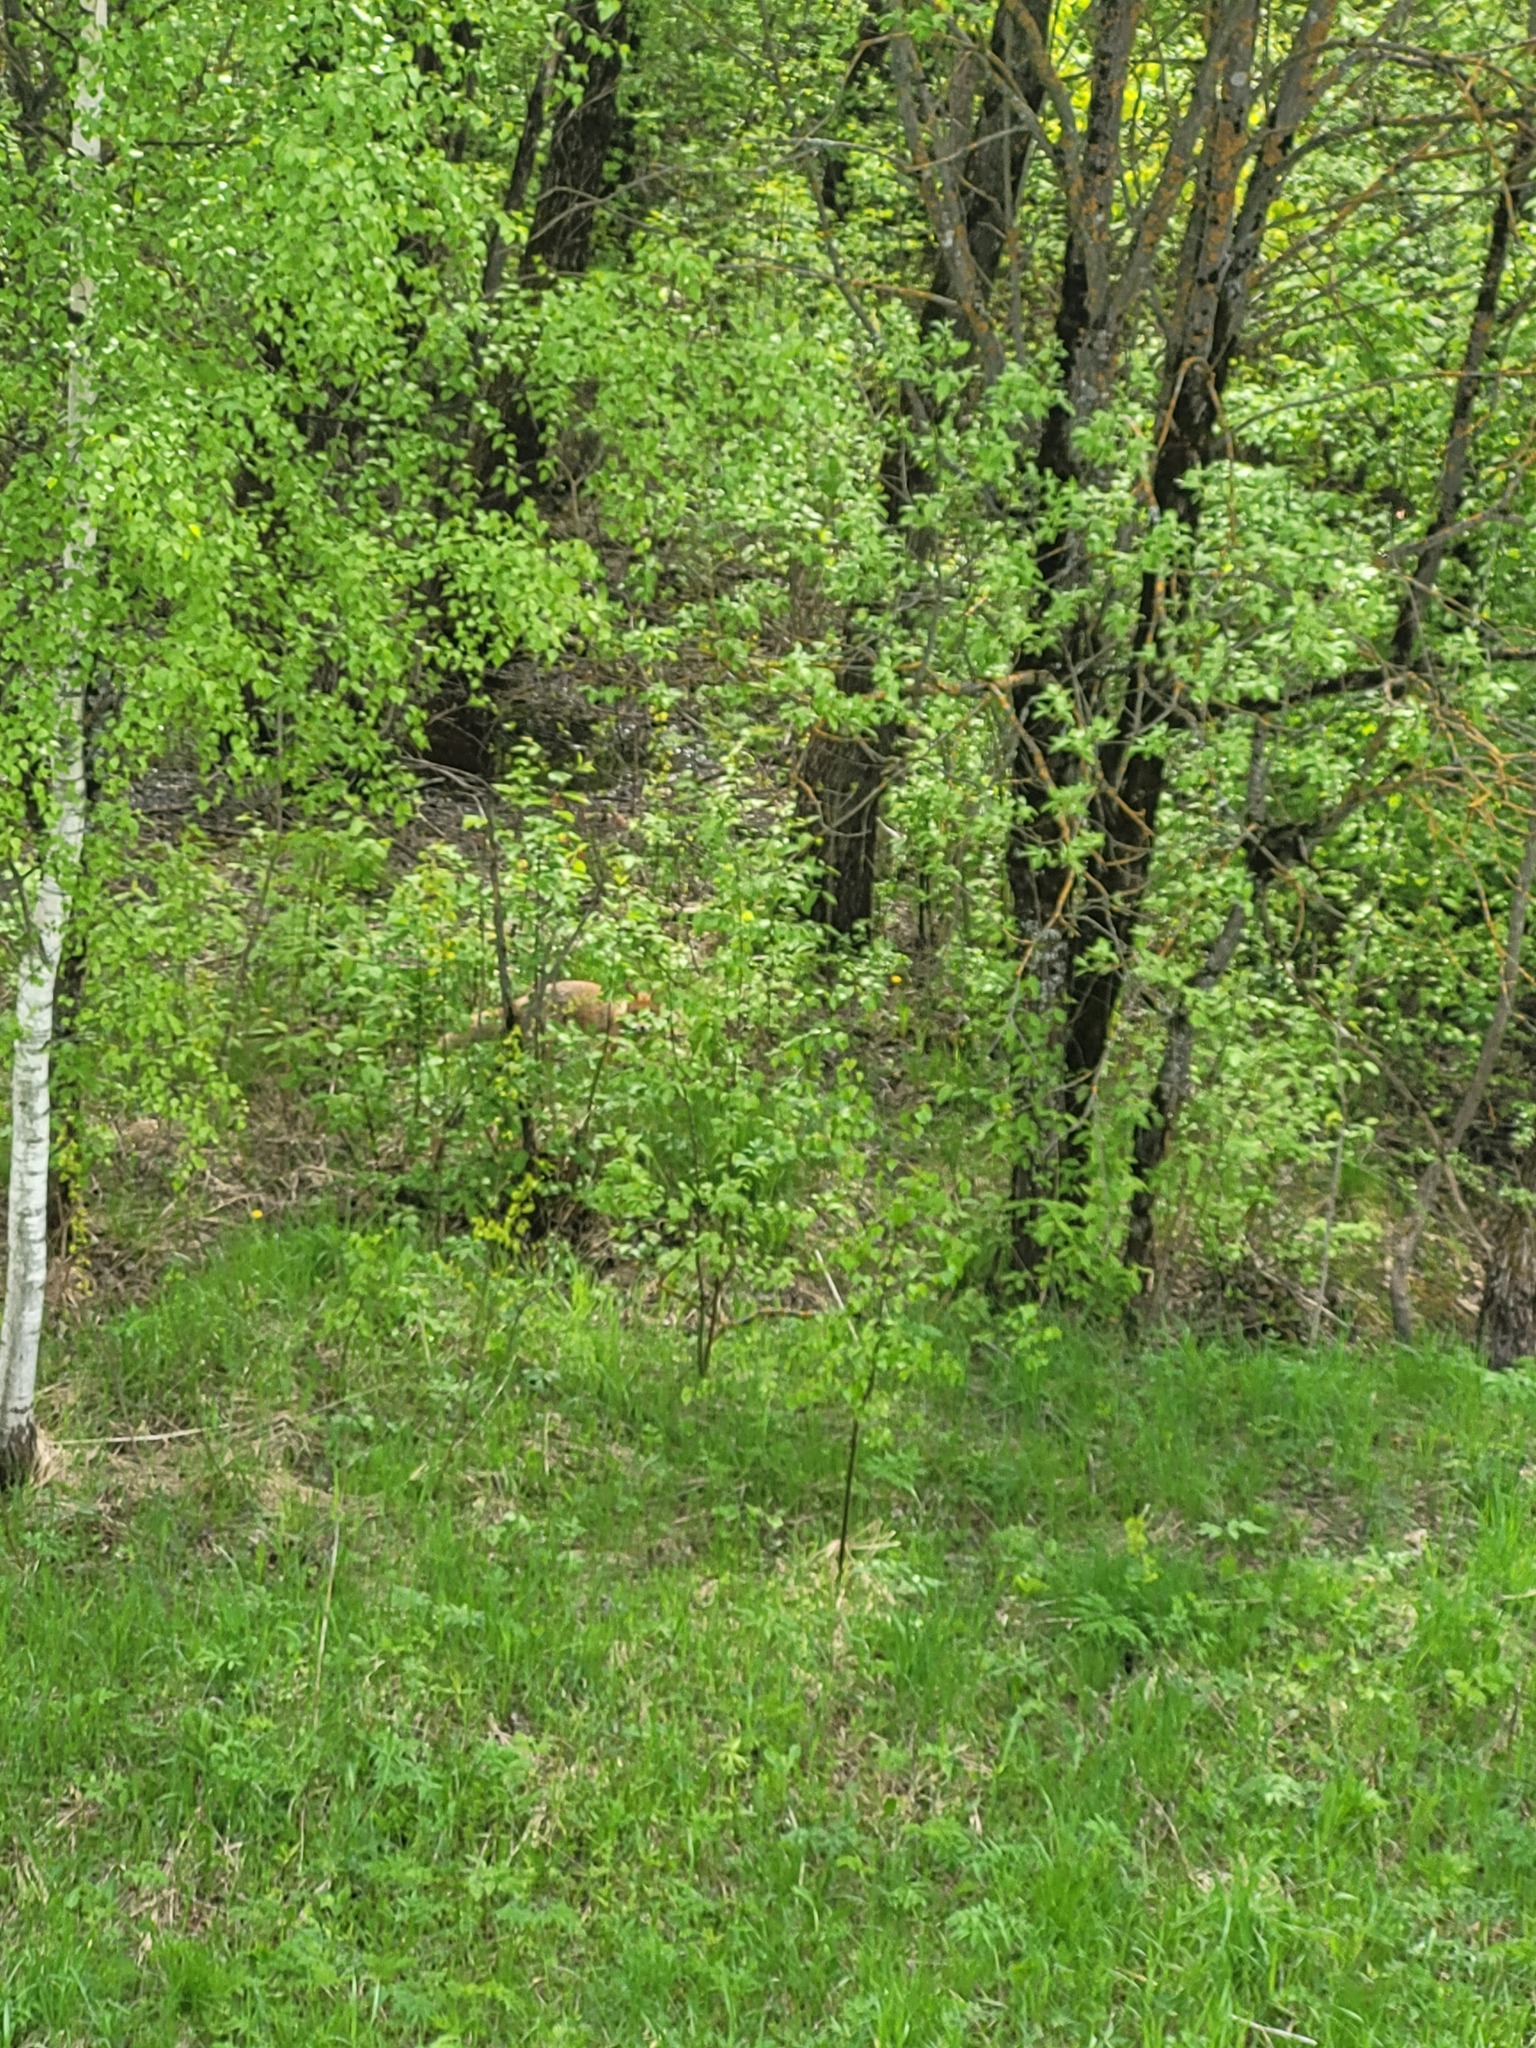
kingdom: Animalia
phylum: Chordata
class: Mammalia
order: Carnivora
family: Canidae
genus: Vulpes
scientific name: Vulpes vulpes
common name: Red fox
